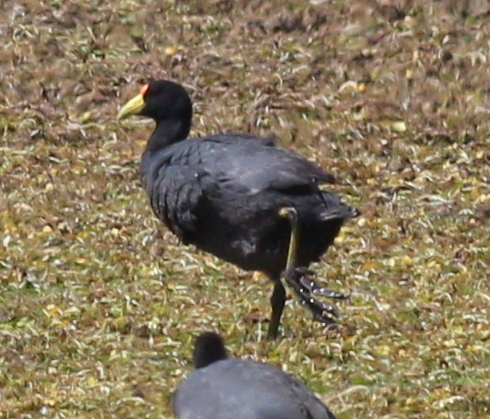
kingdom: Animalia
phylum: Chordata
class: Aves
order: Gruiformes
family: Rallidae
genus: Fulica
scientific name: Fulica ardesiaca
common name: Andean coot
